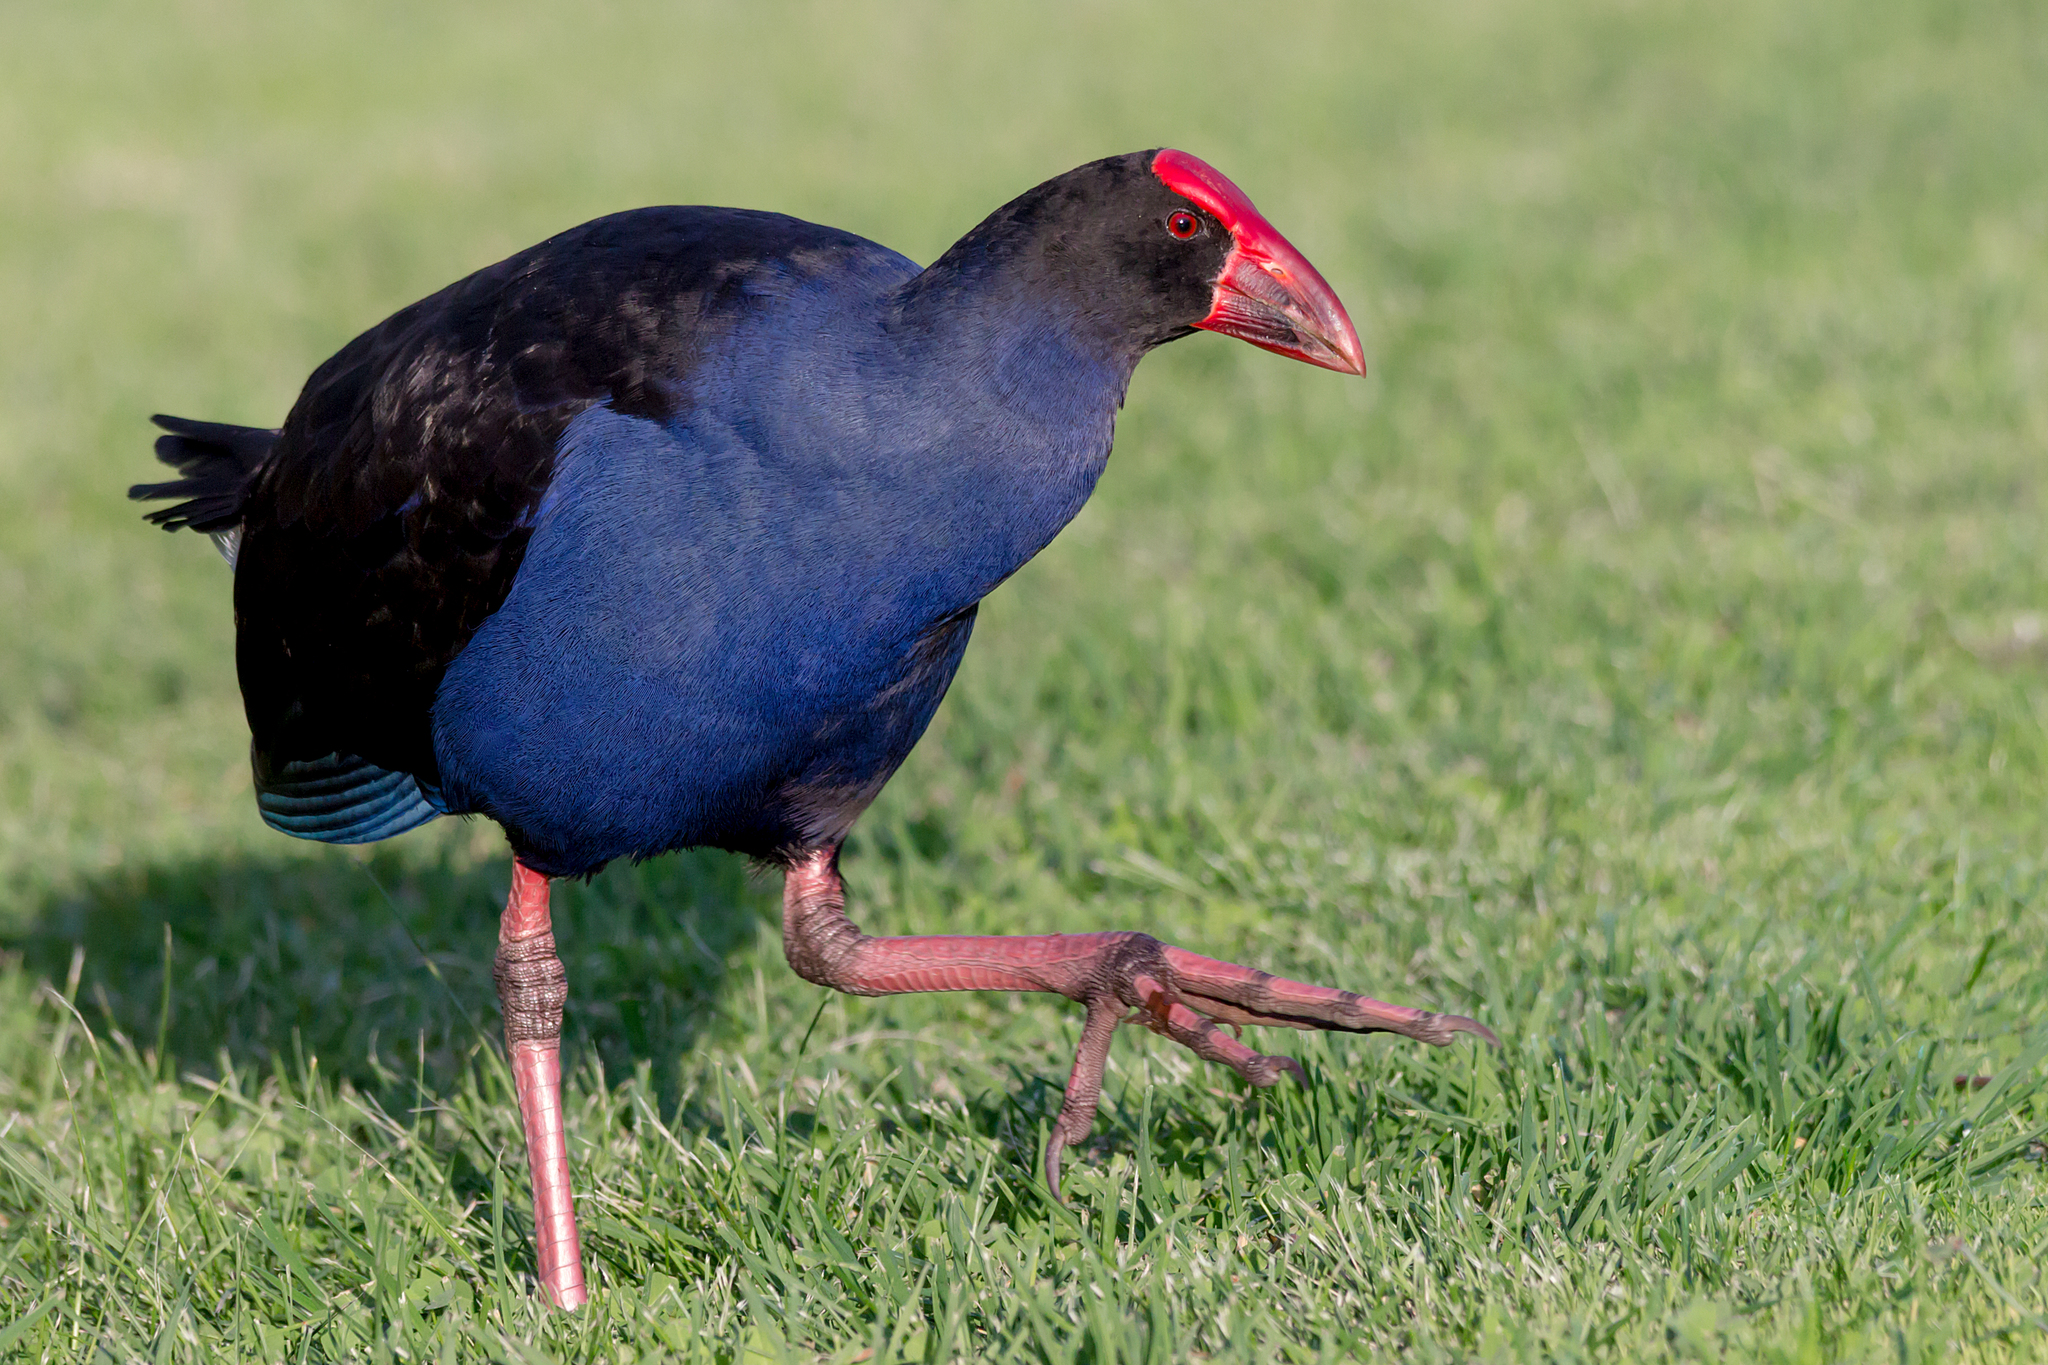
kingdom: Animalia
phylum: Chordata
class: Aves
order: Gruiformes
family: Rallidae
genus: Porphyrio
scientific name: Porphyrio melanotus
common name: Australasian swamphen
